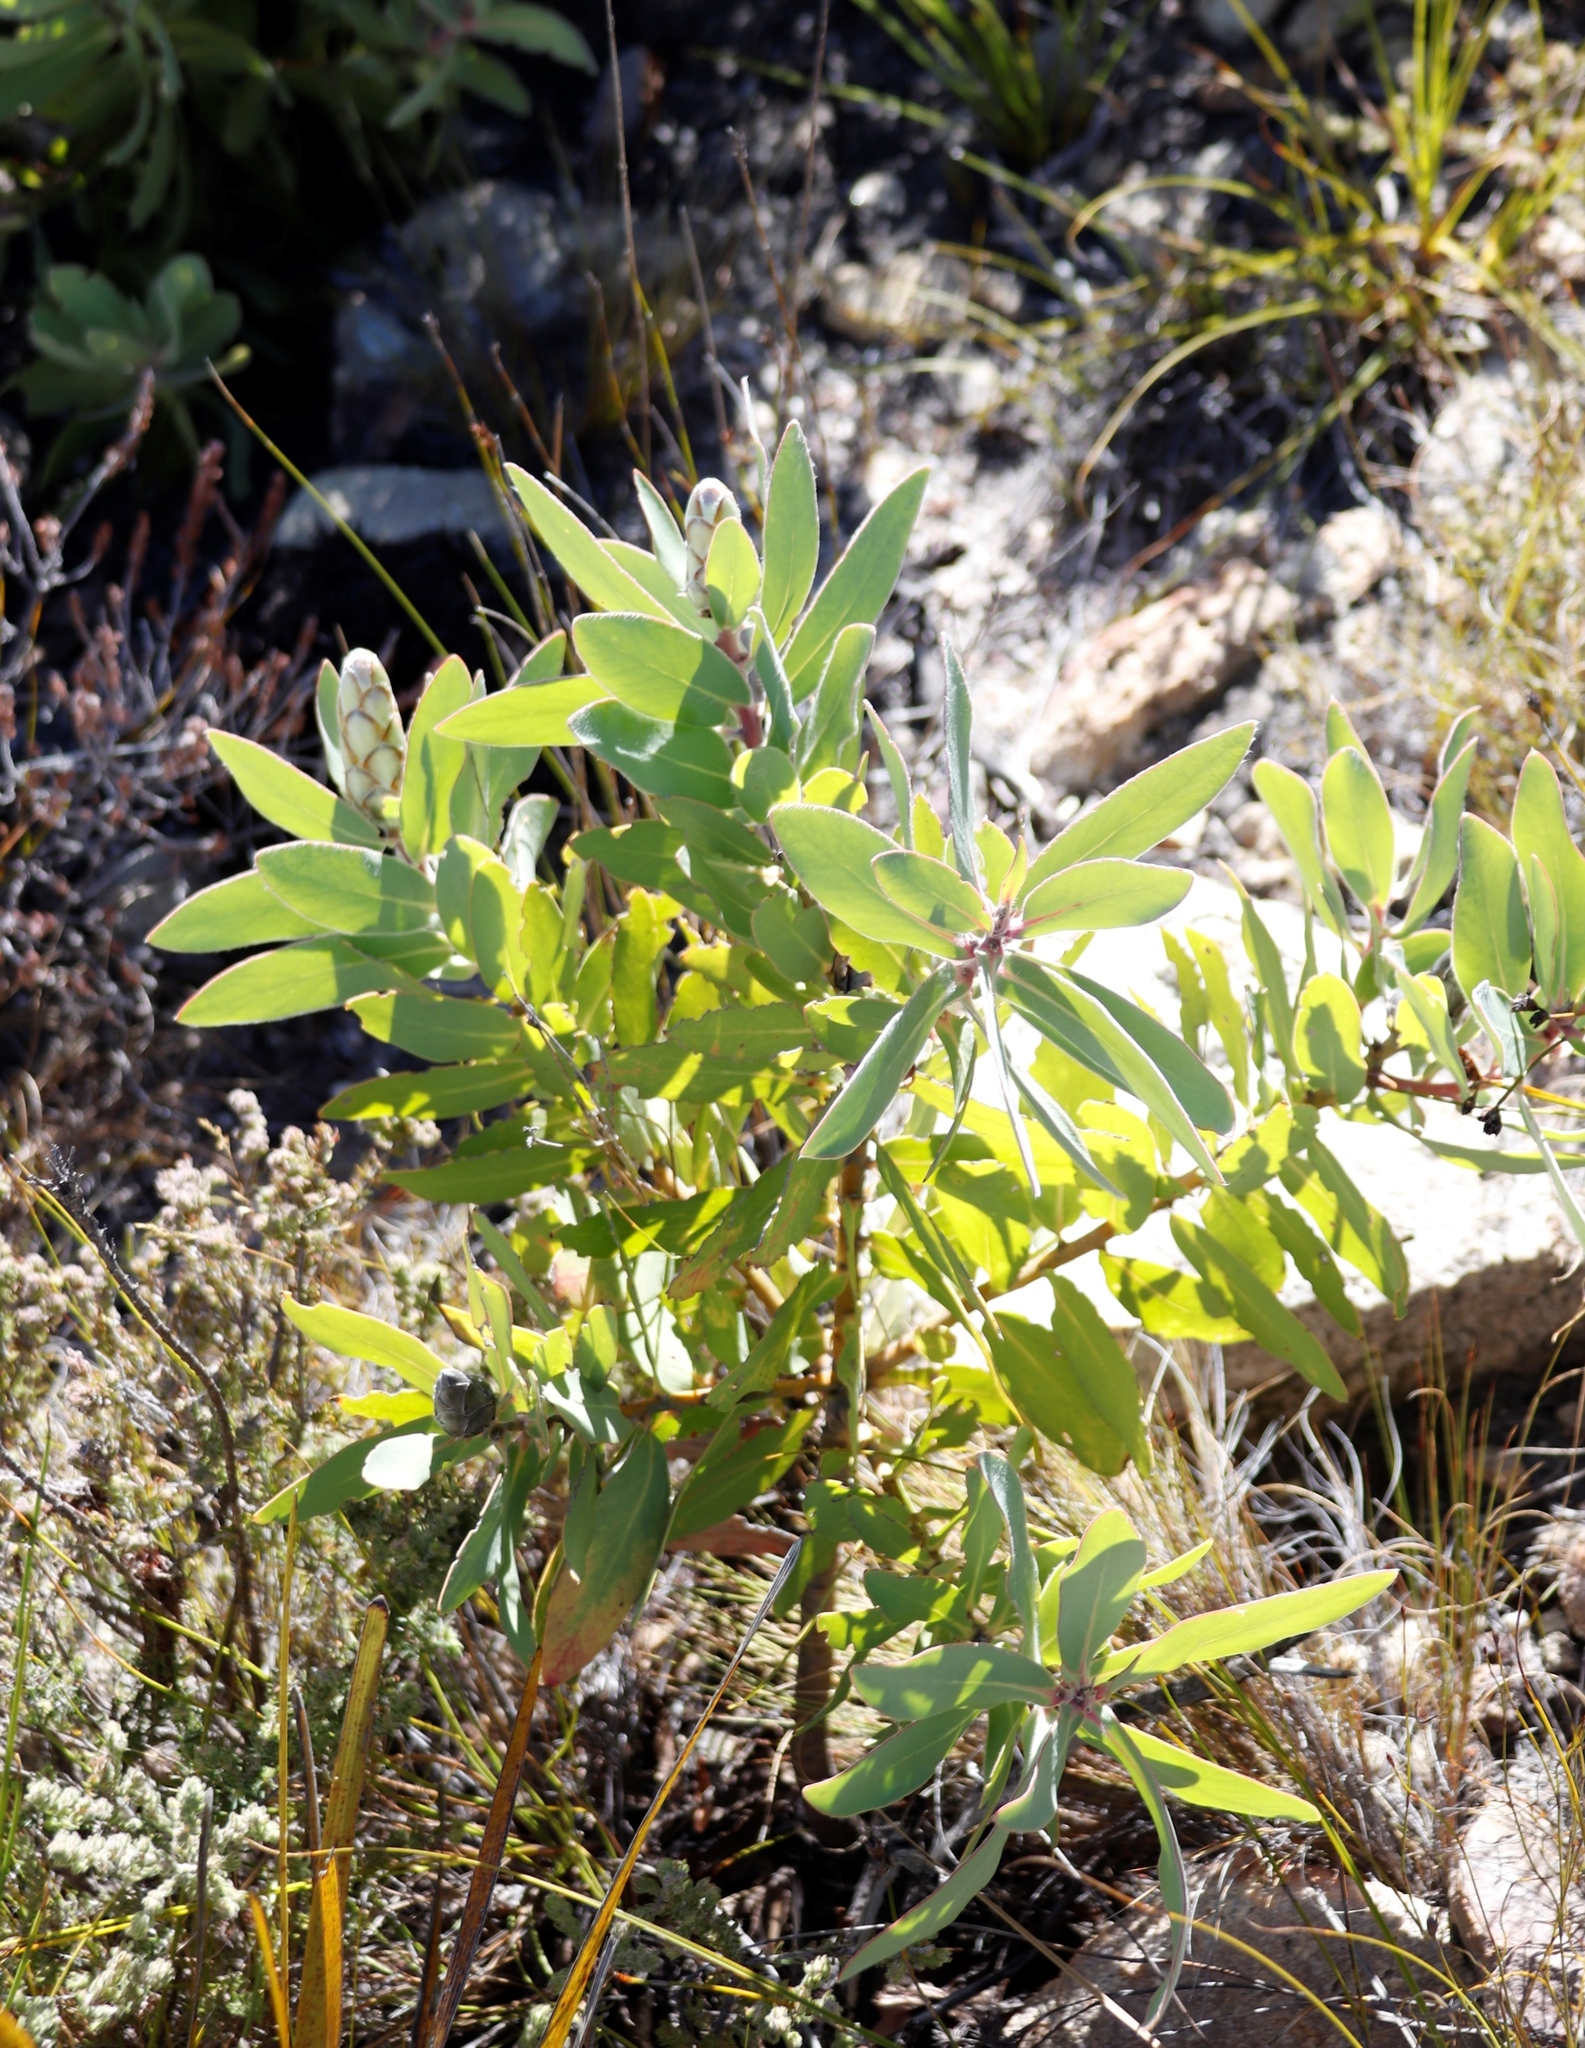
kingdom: Plantae
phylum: Tracheophyta
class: Magnoliopsida
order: Proteales
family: Proteaceae
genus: Protea
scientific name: Protea lacticolor
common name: Hottentot sugarbush
